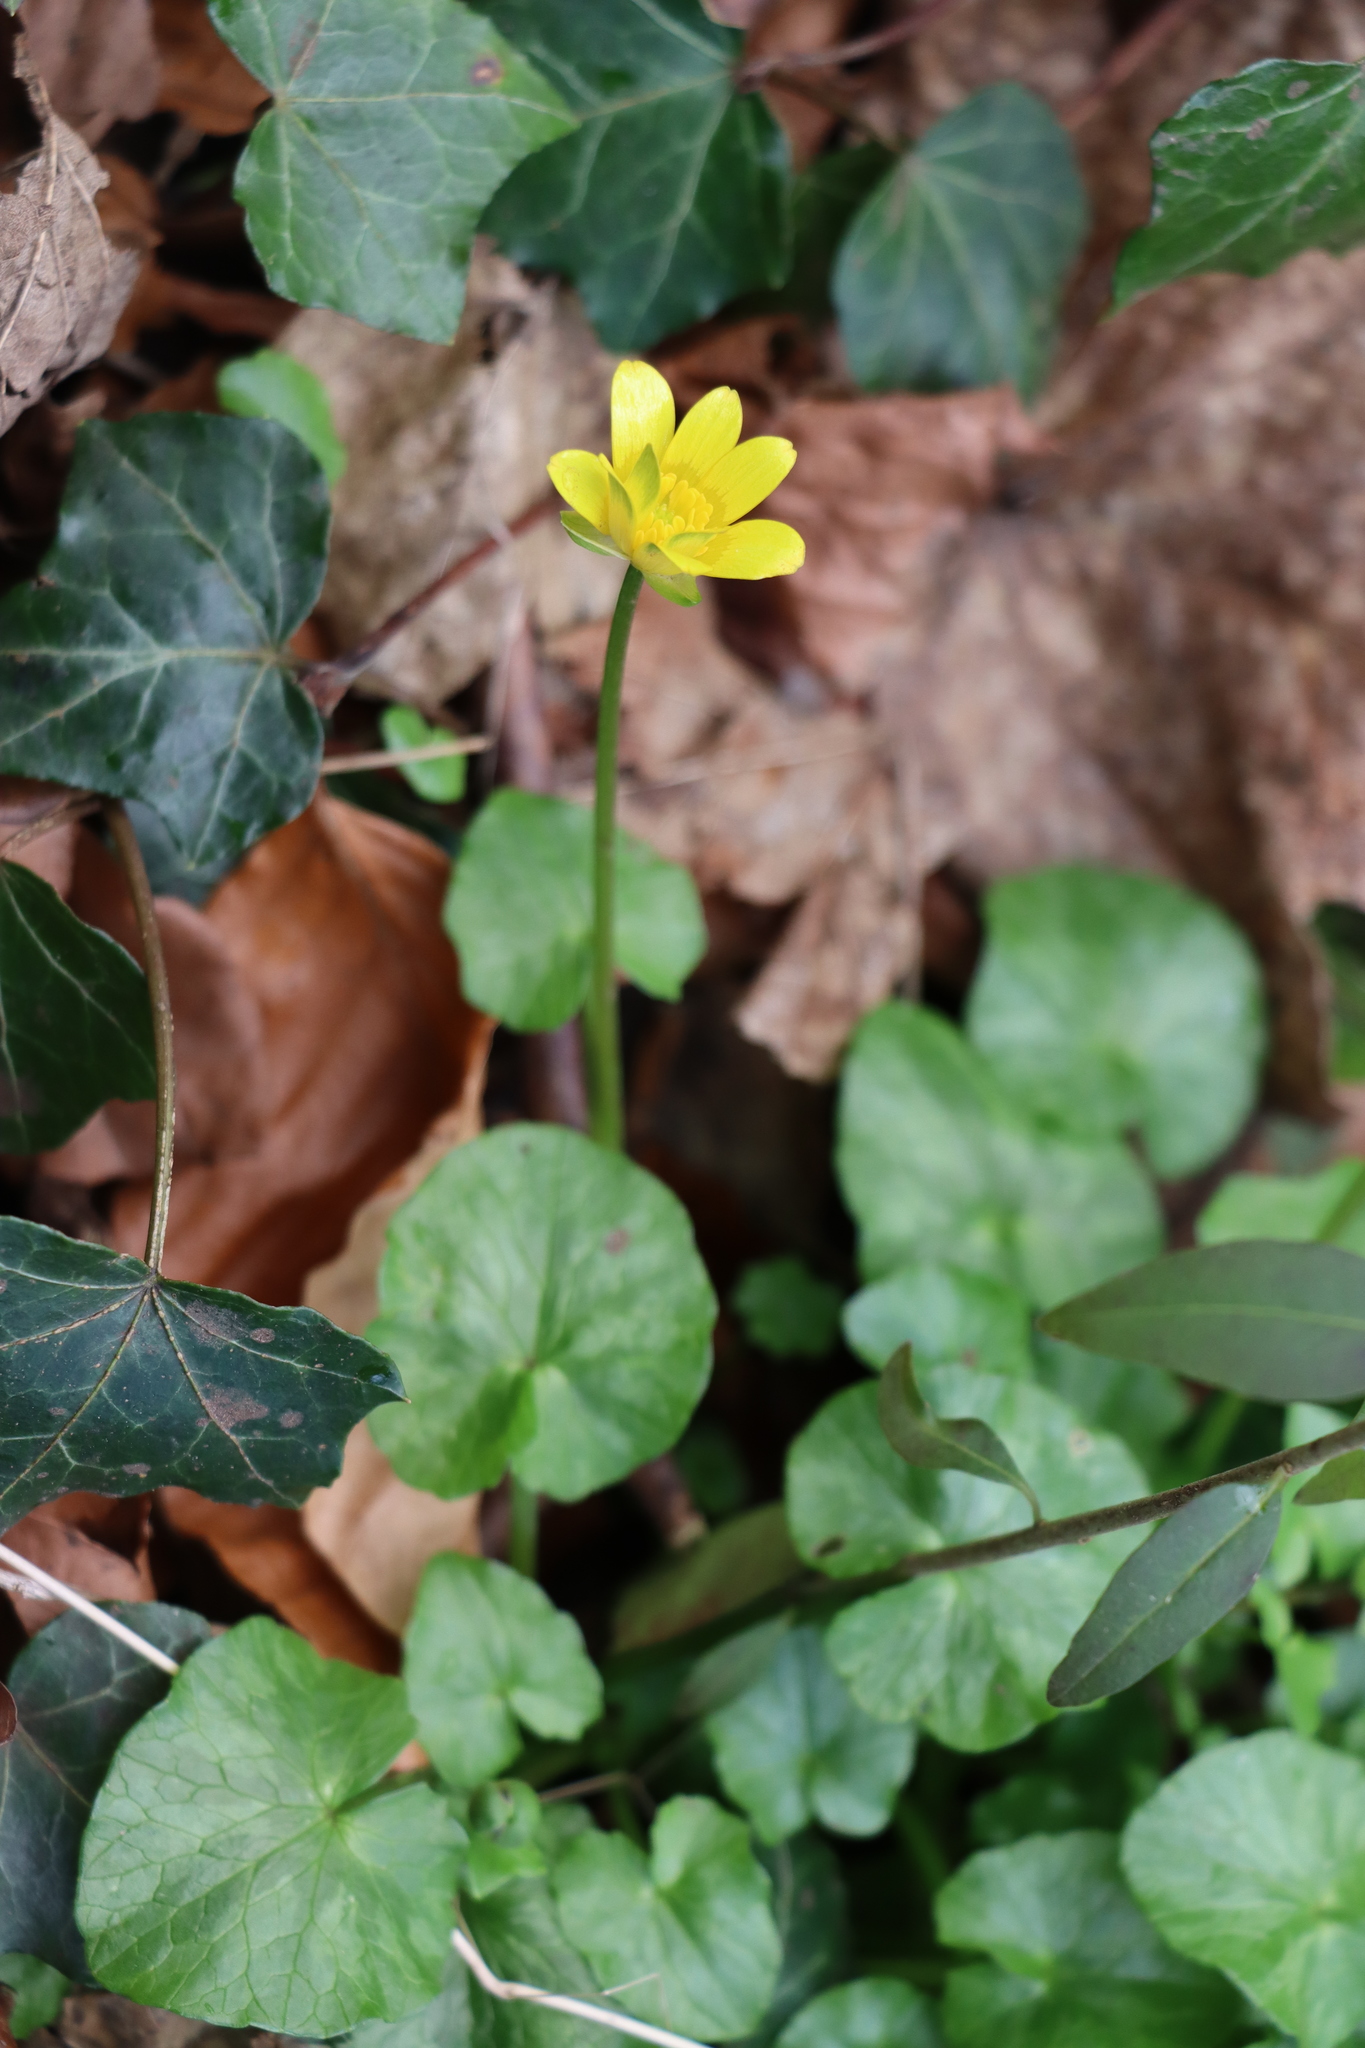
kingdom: Plantae
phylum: Tracheophyta
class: Magnoliopsida
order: Ranunculales
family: Ranunculaceae
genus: Ficaria
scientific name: Ficaria verna
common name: Lesser celandine
